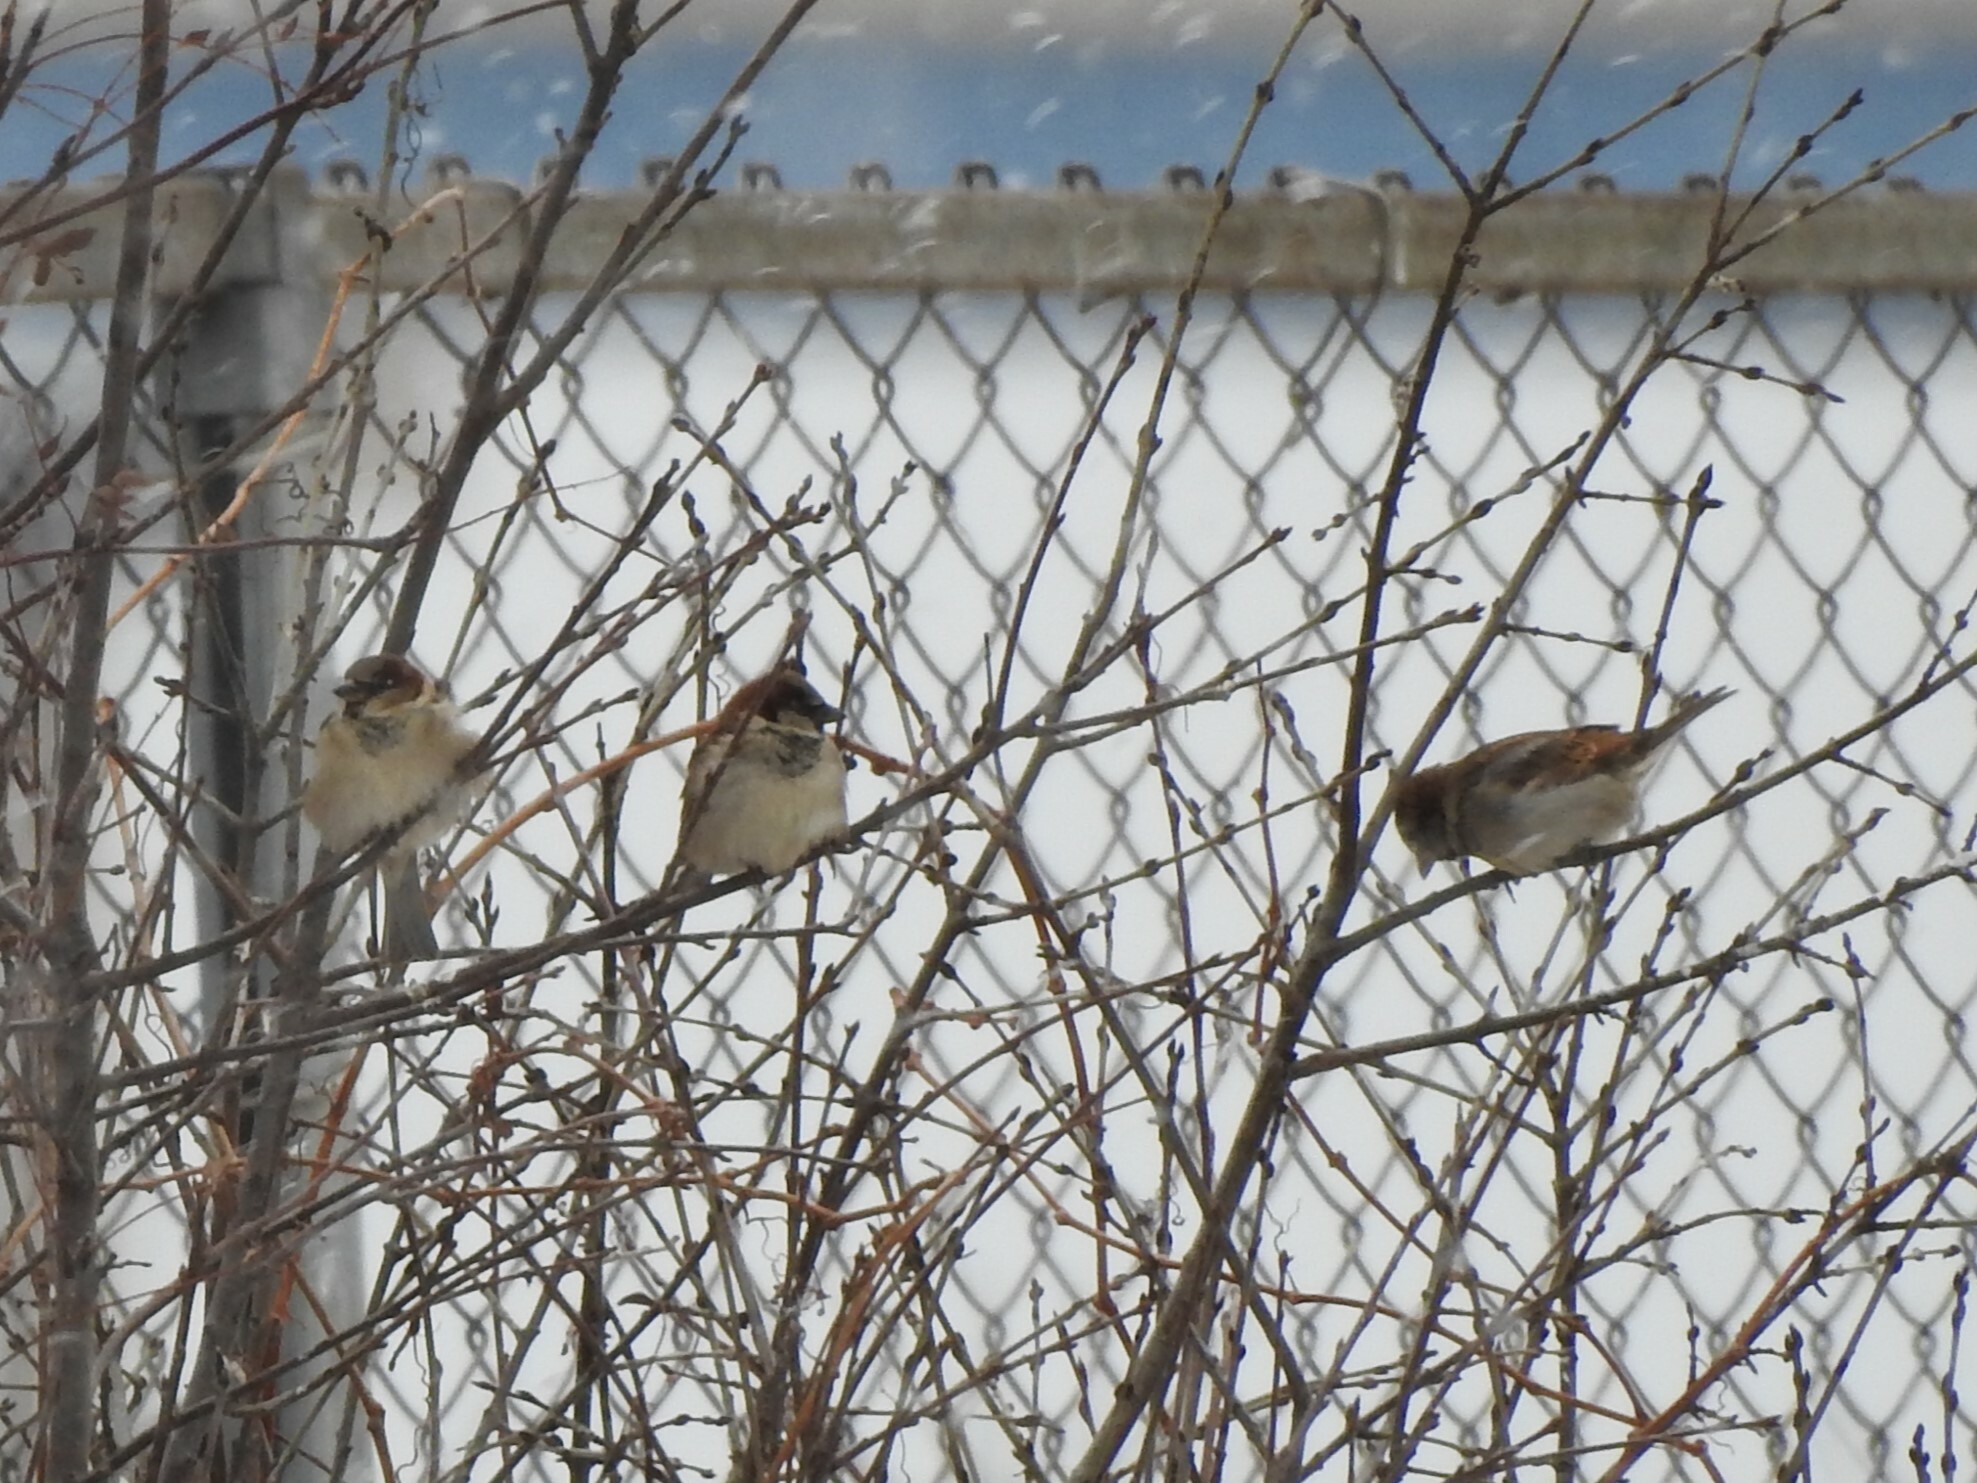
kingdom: Animalia
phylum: Chordata
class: Aves
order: Passeriformes
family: Passeridae
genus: Passer
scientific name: Passer domesticus
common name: House sparrow
